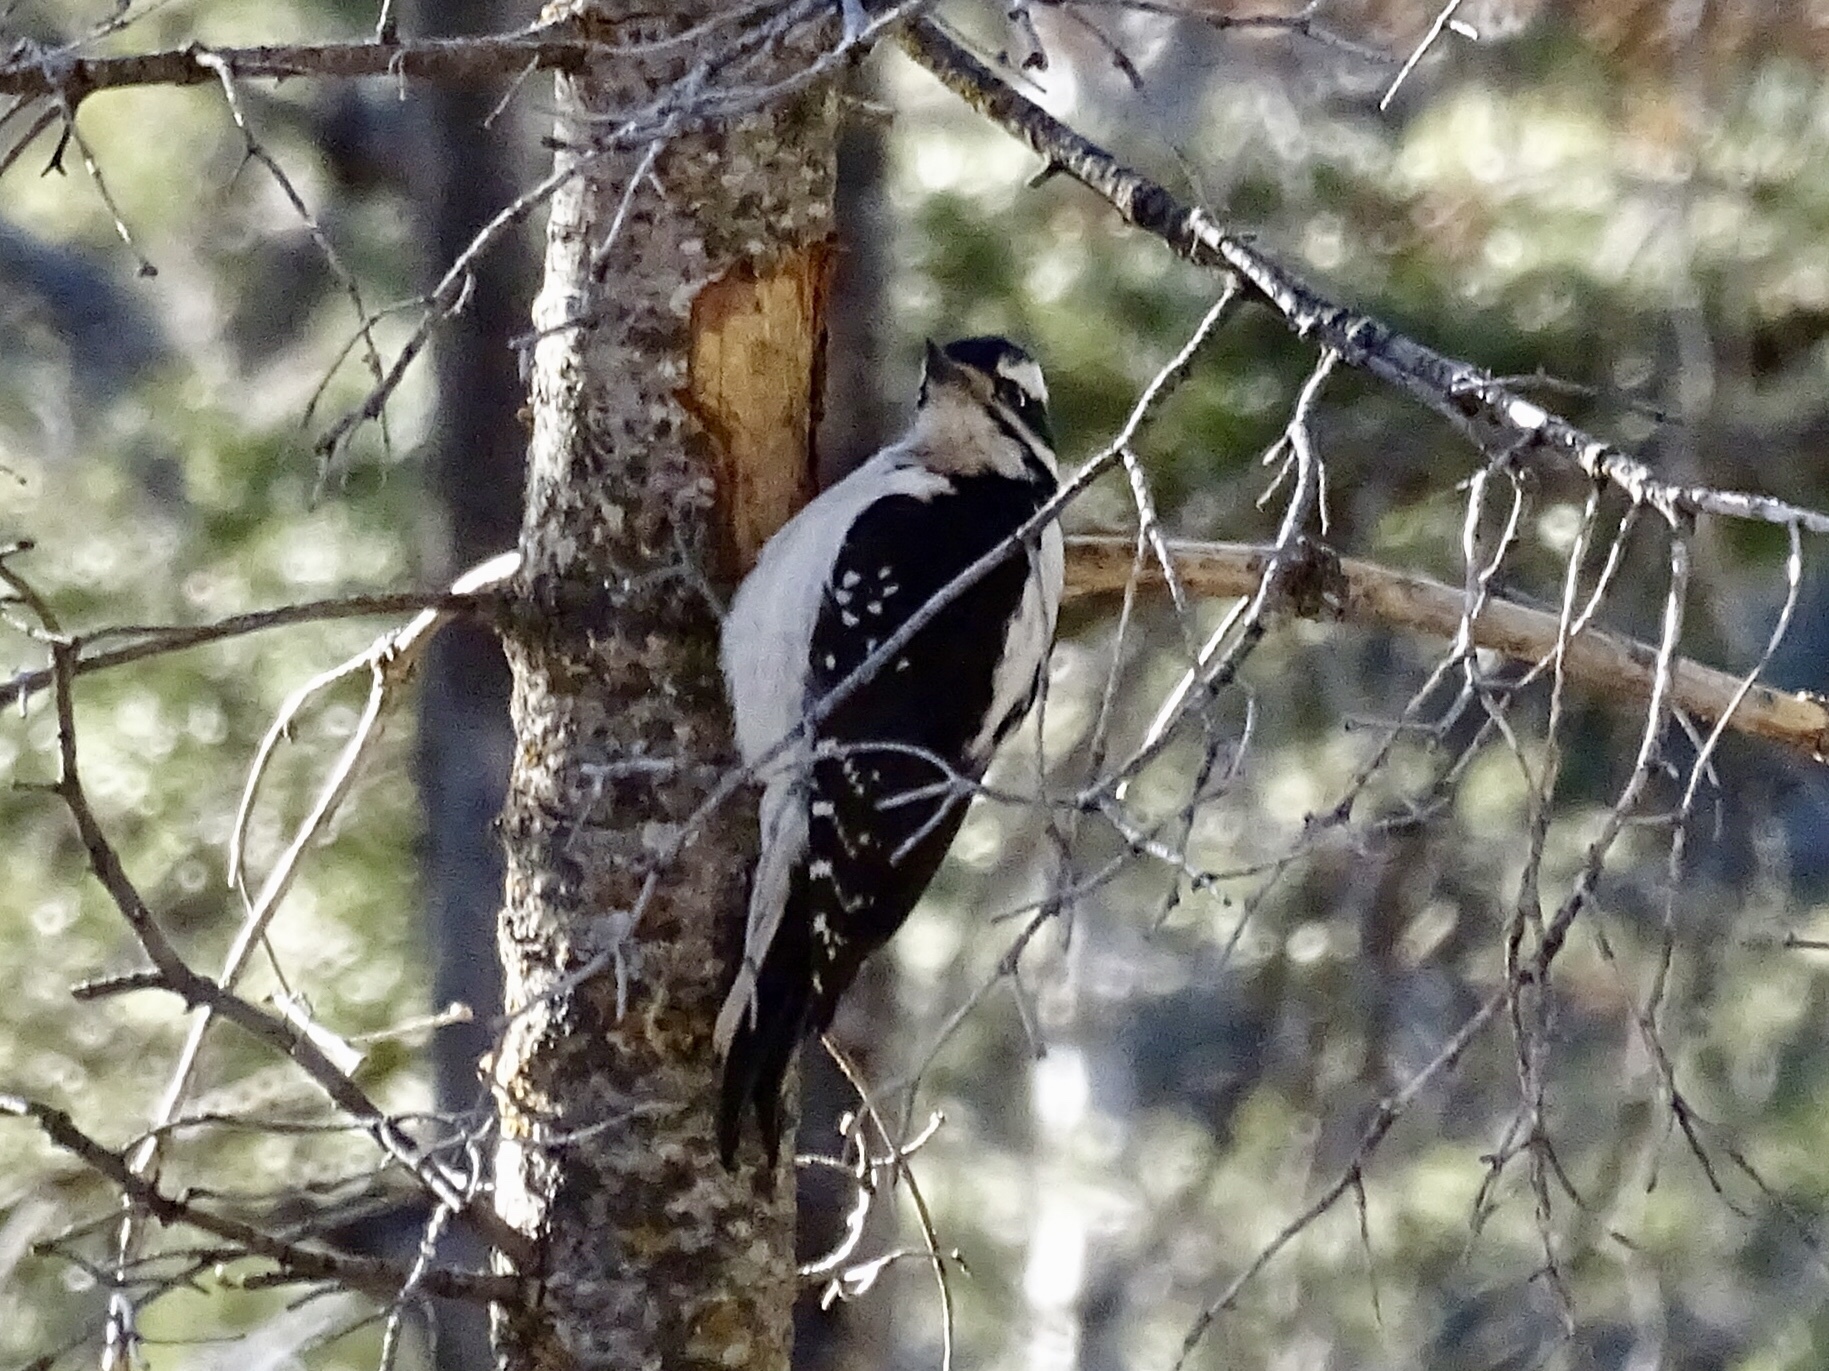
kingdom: Animalia
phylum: Chordata
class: Aves
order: Piciformes
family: Picidae
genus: Leuconotopicus
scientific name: Leuconotopicus villosus
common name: Hairy woodpecker
